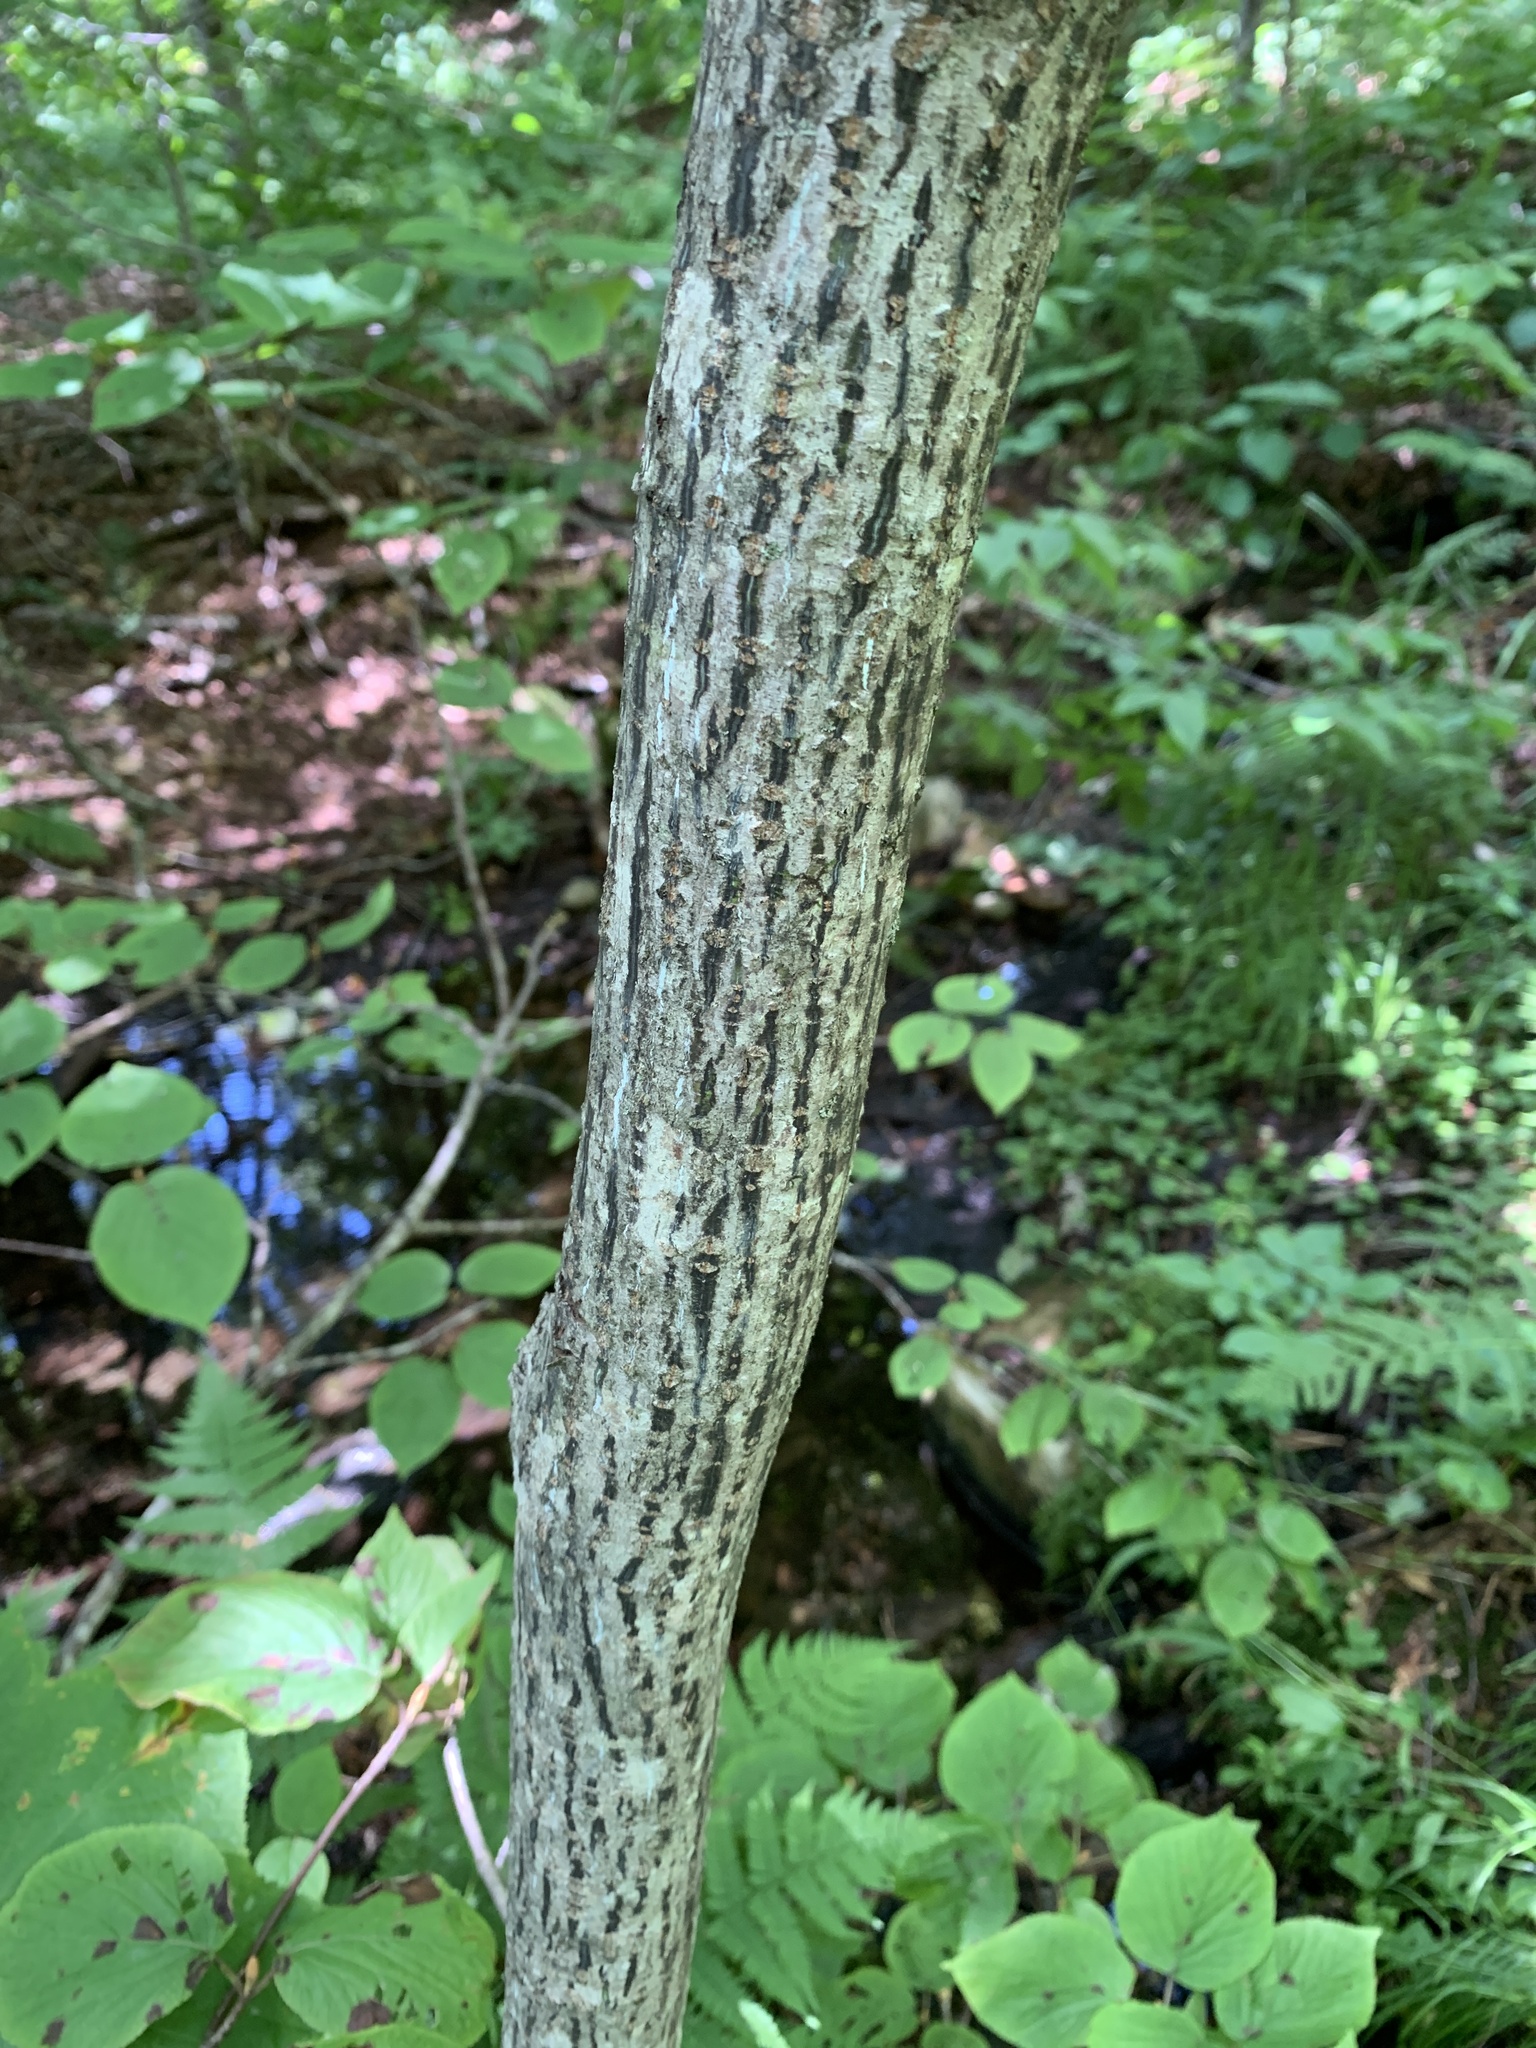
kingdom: Plantae
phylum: Tracheophyta
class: Magnoliopsida
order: Sapindales
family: Sapindaceae
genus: Acer
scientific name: Acer pensylvanicum
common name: Moosewood
